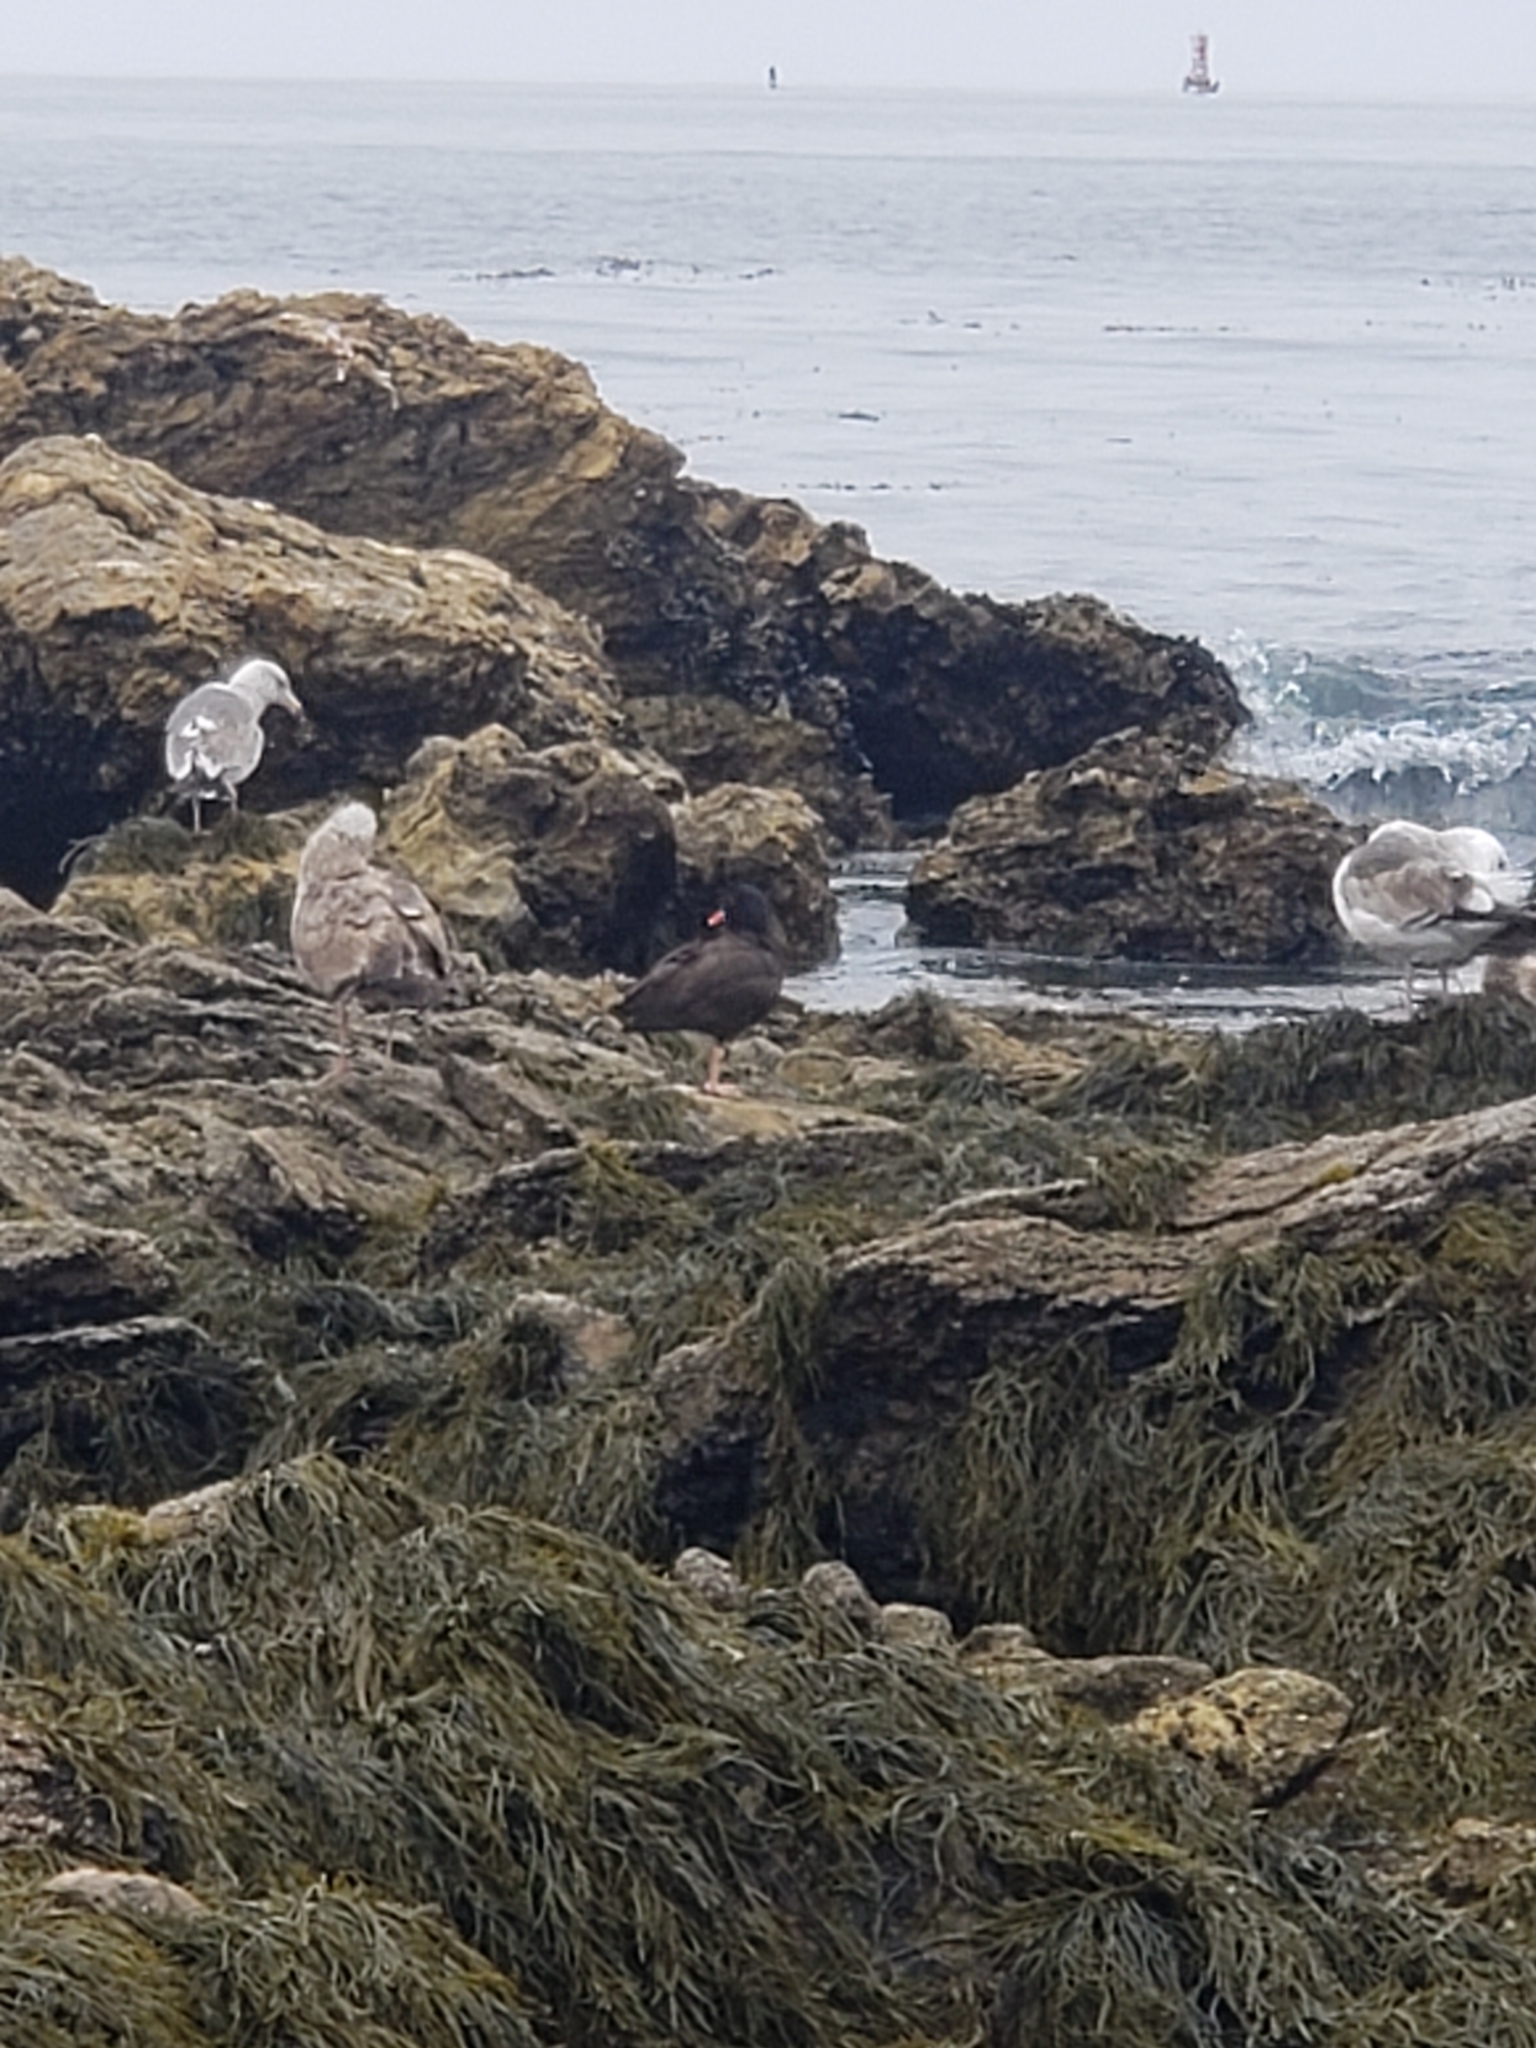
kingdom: Animalia
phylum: Chordata
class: Aves
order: Charadriiformes
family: Haematopodidae
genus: Haematopus
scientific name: Haematopus bachmani
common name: Black oystercatcher
